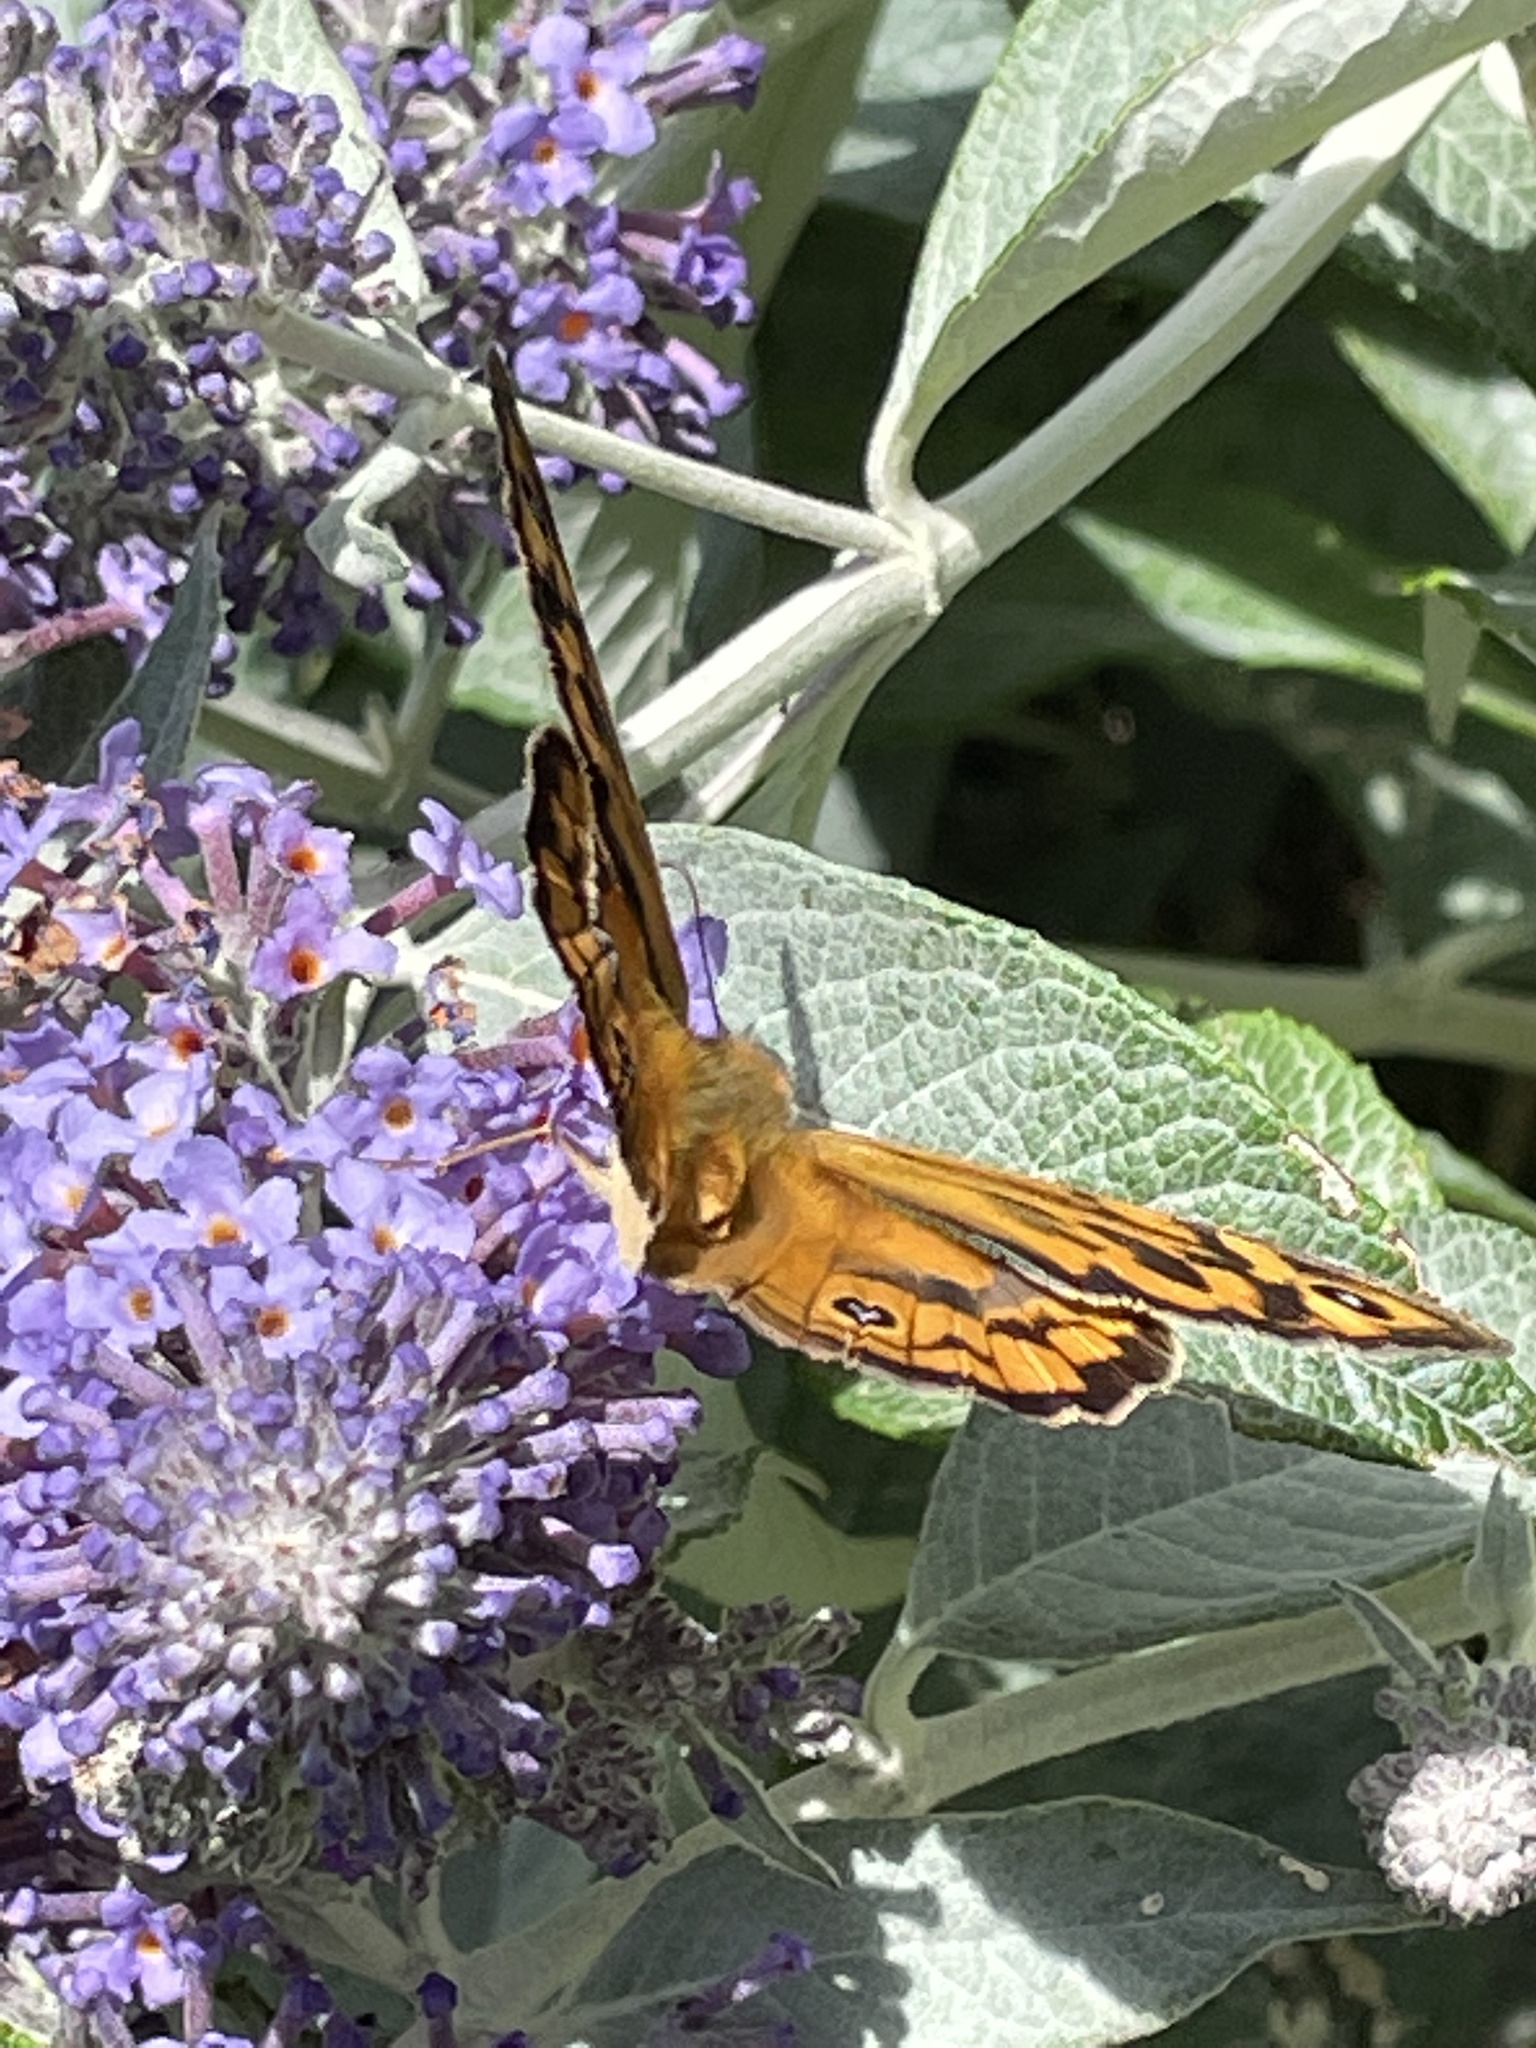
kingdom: Animalia
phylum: Arthropoda
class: Insecta
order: Lepidoptera
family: Nymphalidae
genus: Heteronympha
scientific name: Heteronympha merope
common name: Common brown
